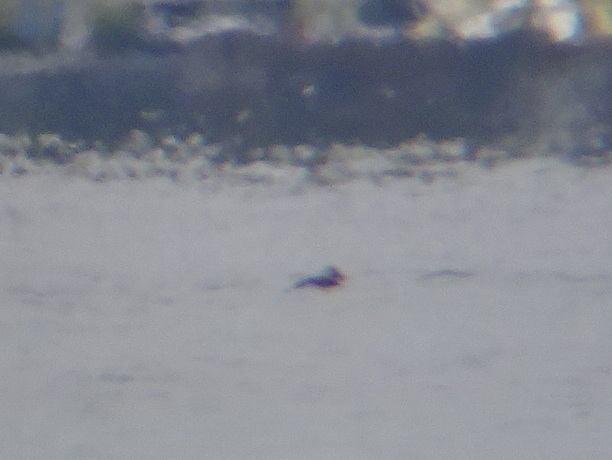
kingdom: Animalia
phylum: Chordata
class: Aves
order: Anseriformes
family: Anatidae
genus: Melanitta
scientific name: Melanitta americana
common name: Black scoter
